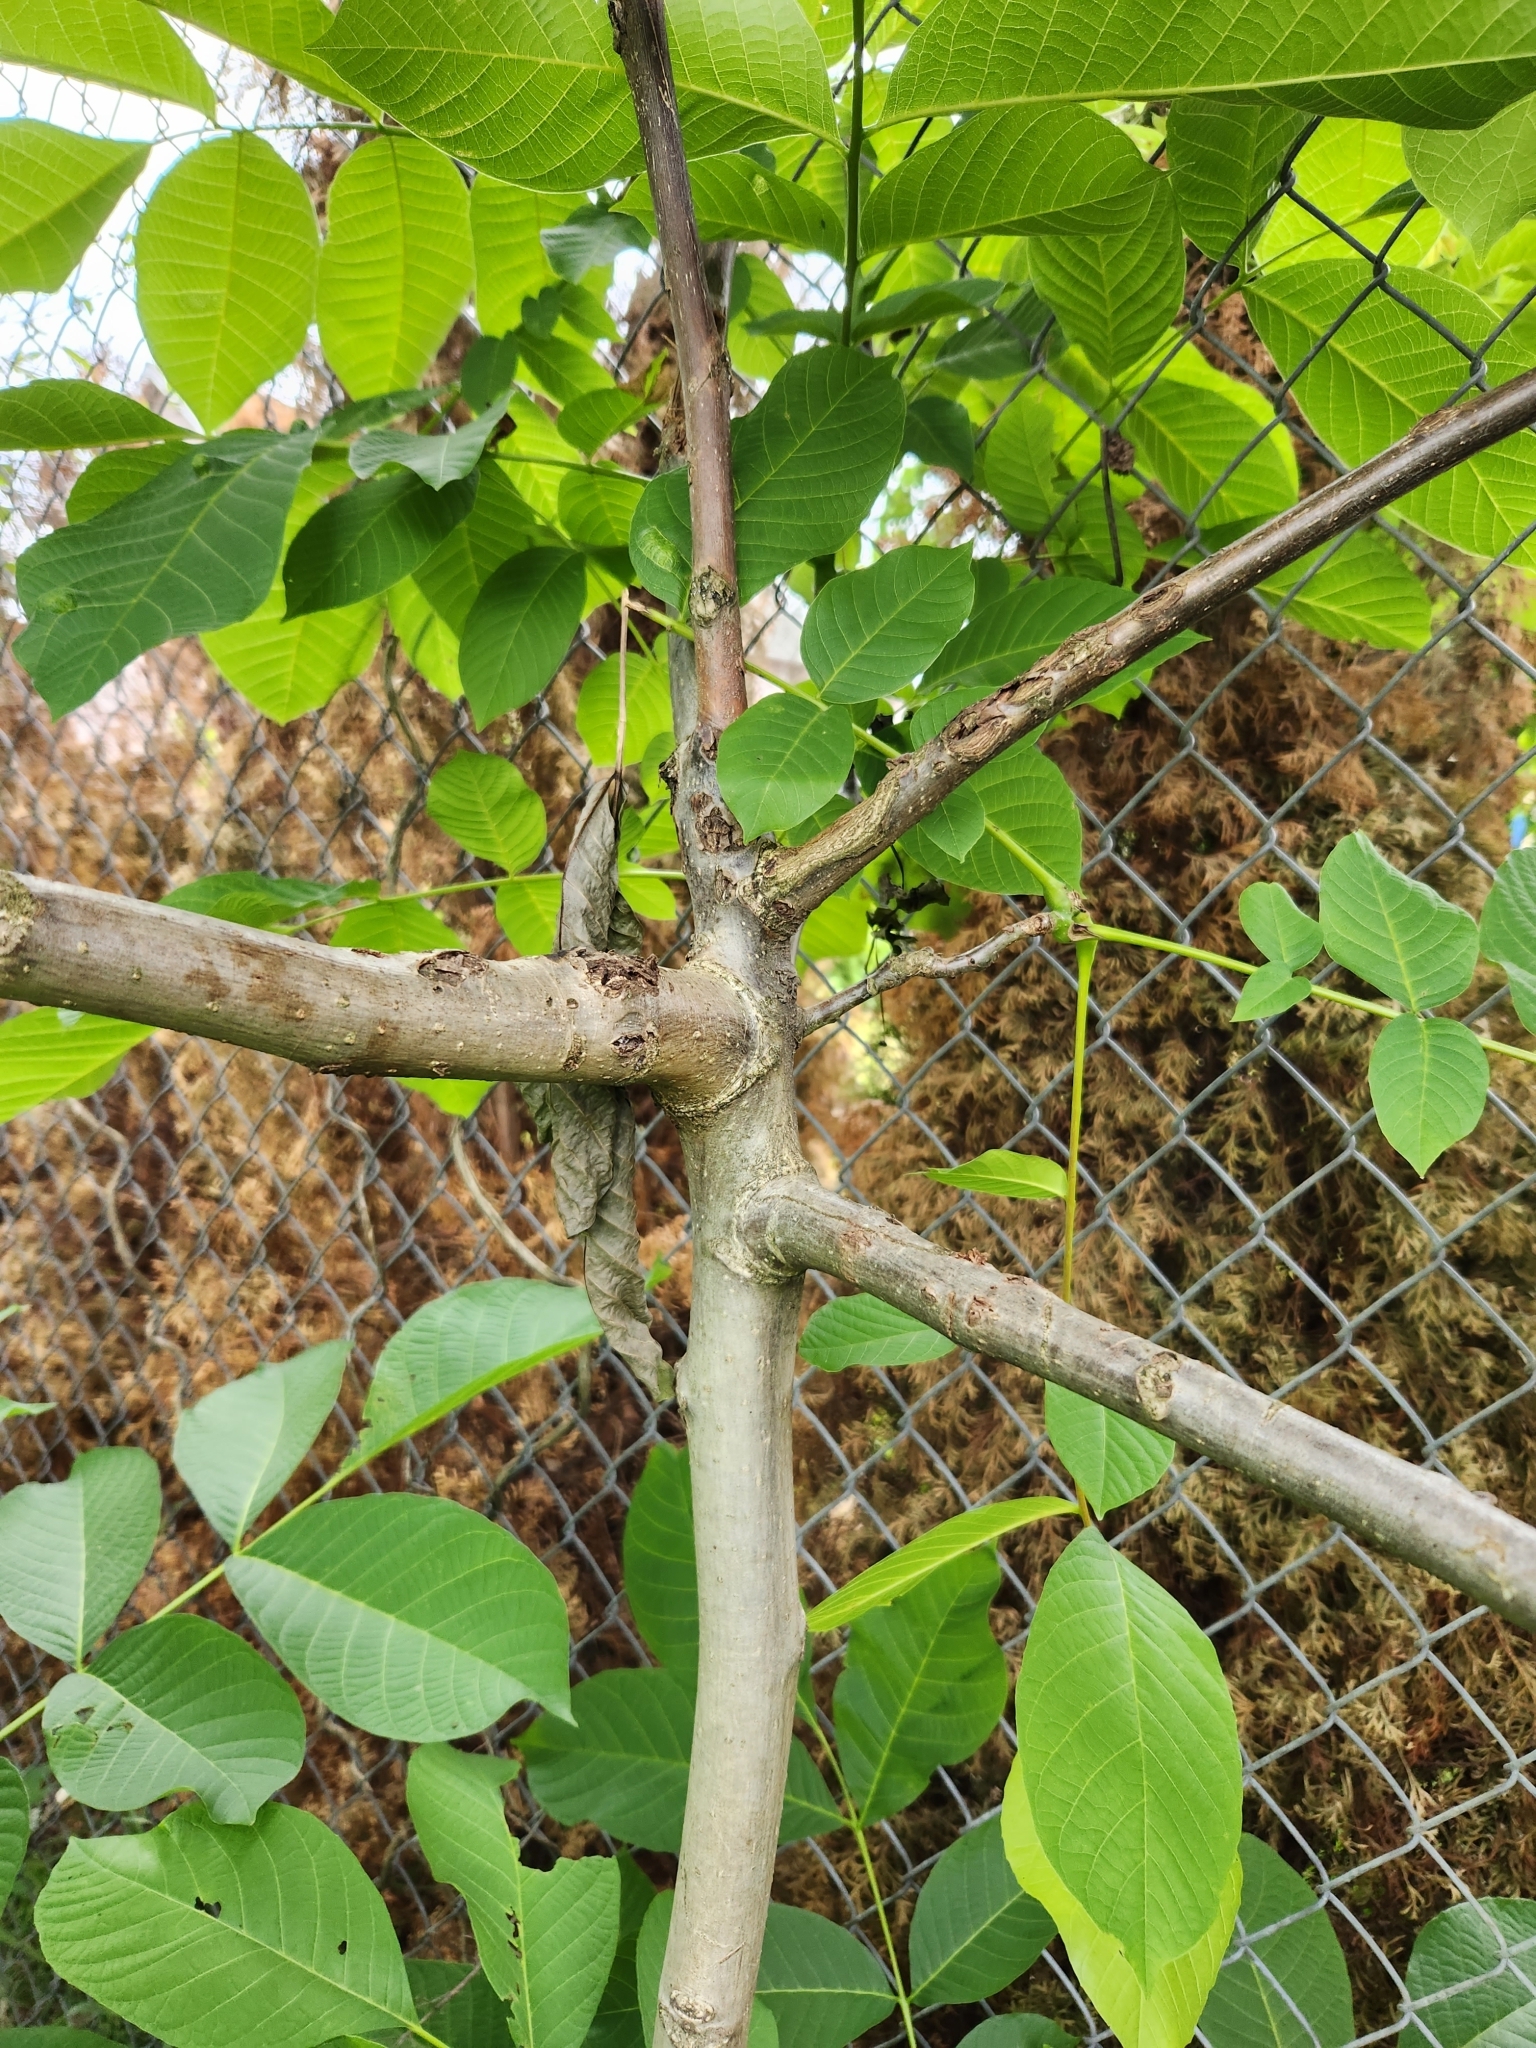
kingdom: Plantae
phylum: Tracheophyta
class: Magnoliopsida
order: Fagales
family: Juglandaceae
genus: Juglans
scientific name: Juglans regia
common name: Walnut
